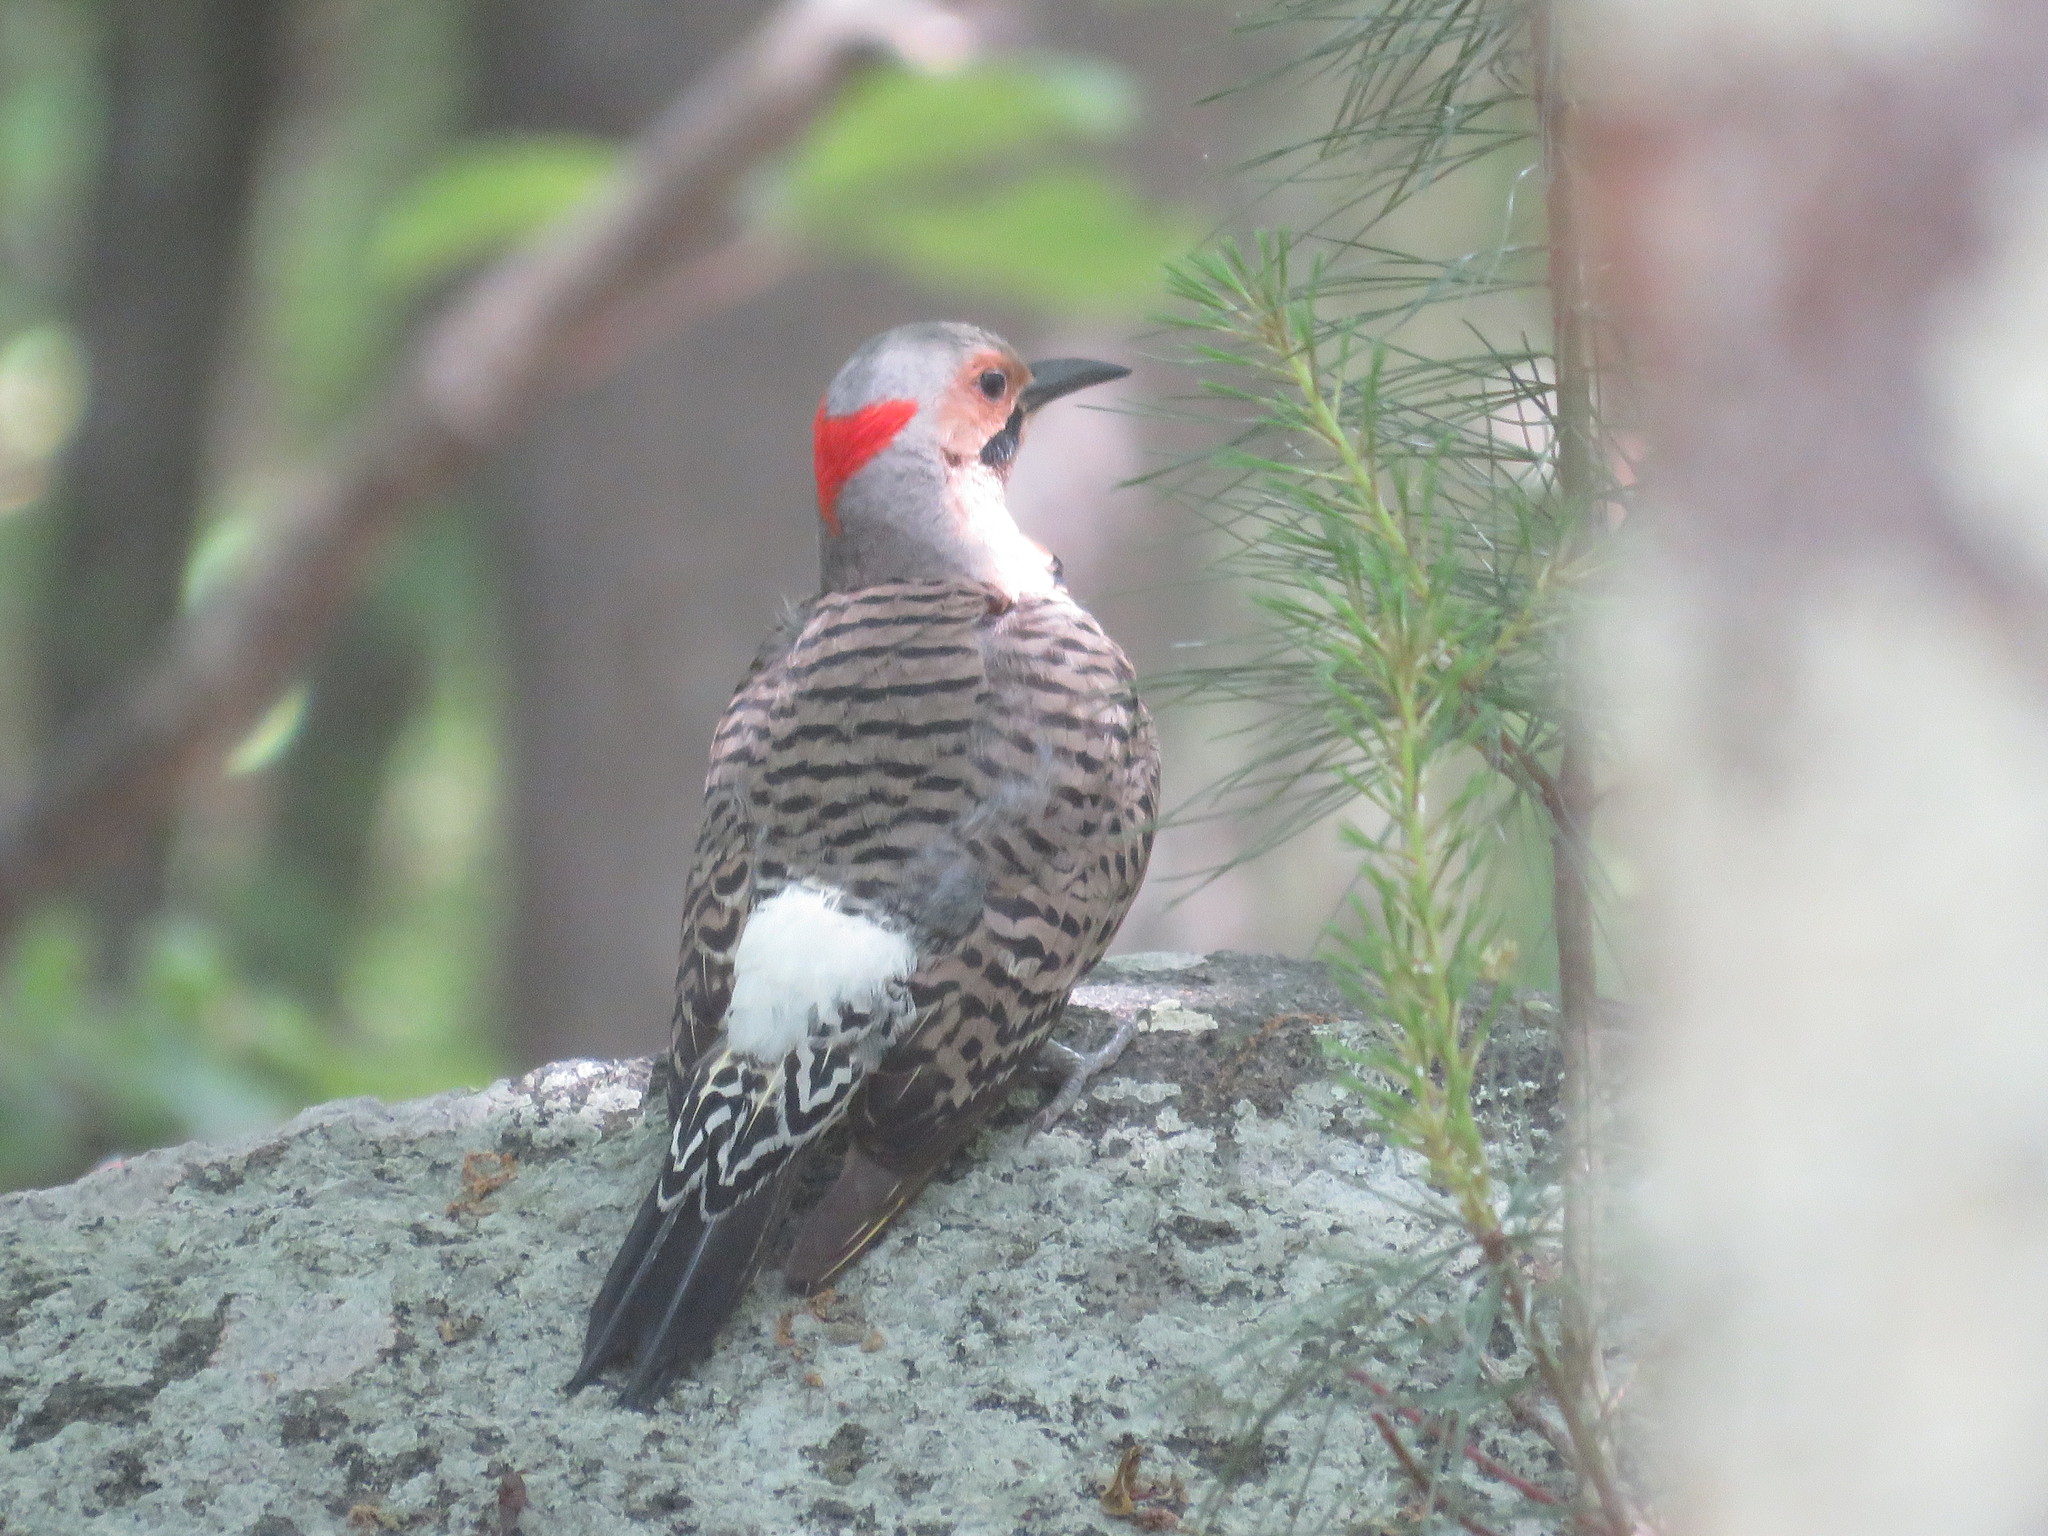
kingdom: Animalia
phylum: Chordata
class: Aves
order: Piciformes
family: Picidae
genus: Colaptes
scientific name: Colaptes auratus
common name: Northern flicker
